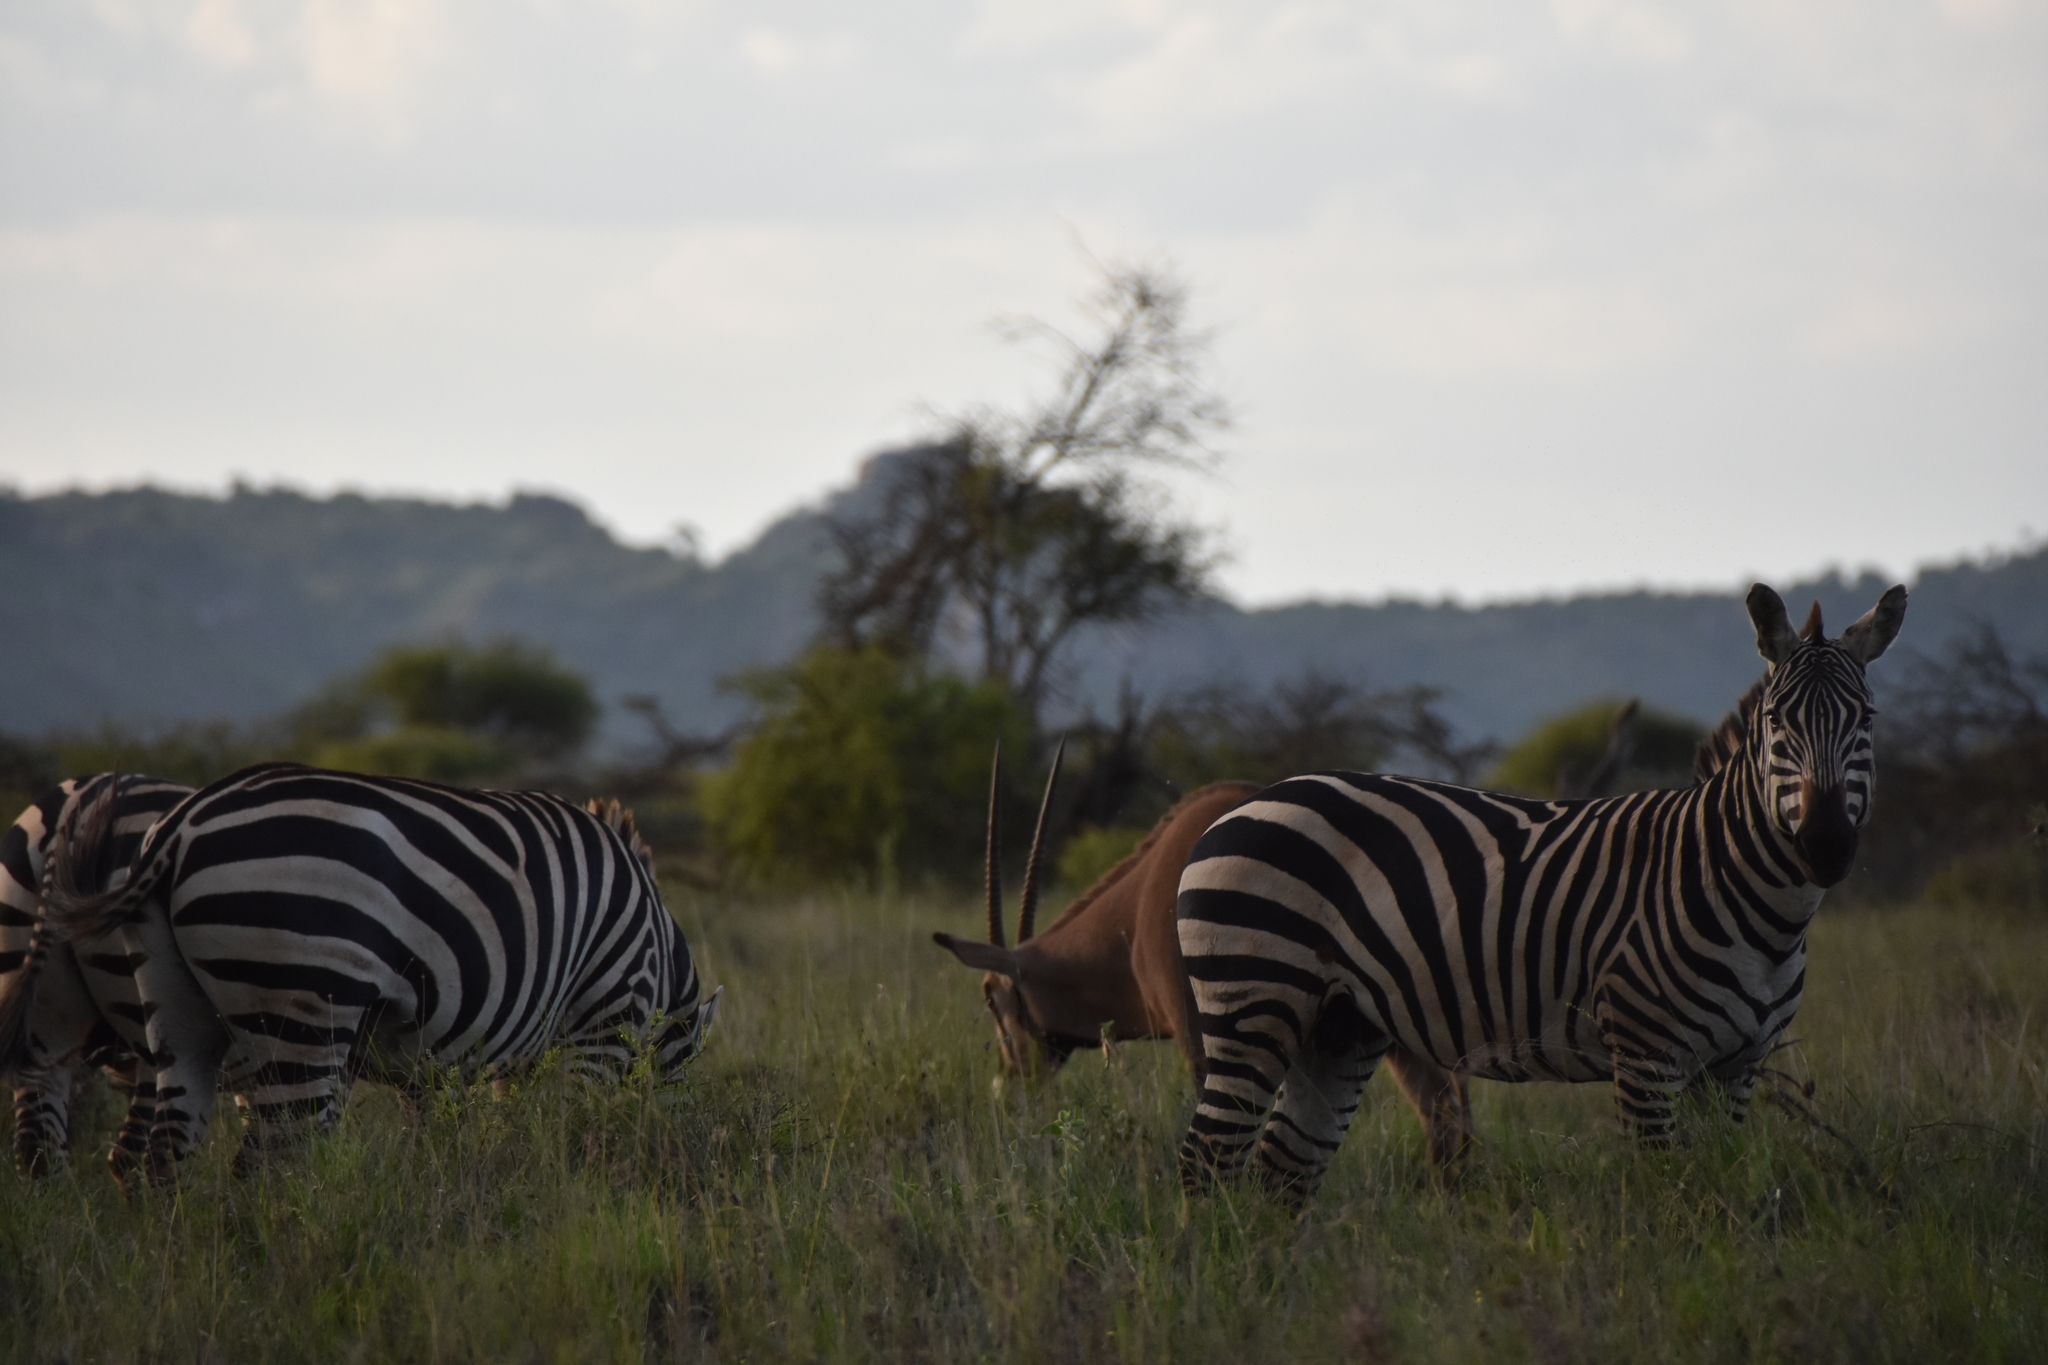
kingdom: Animalia
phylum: Chordata
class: Mammalia
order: Perissodactyla
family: Equidae
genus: Equus
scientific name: Equus quagga
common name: Plains zebra
